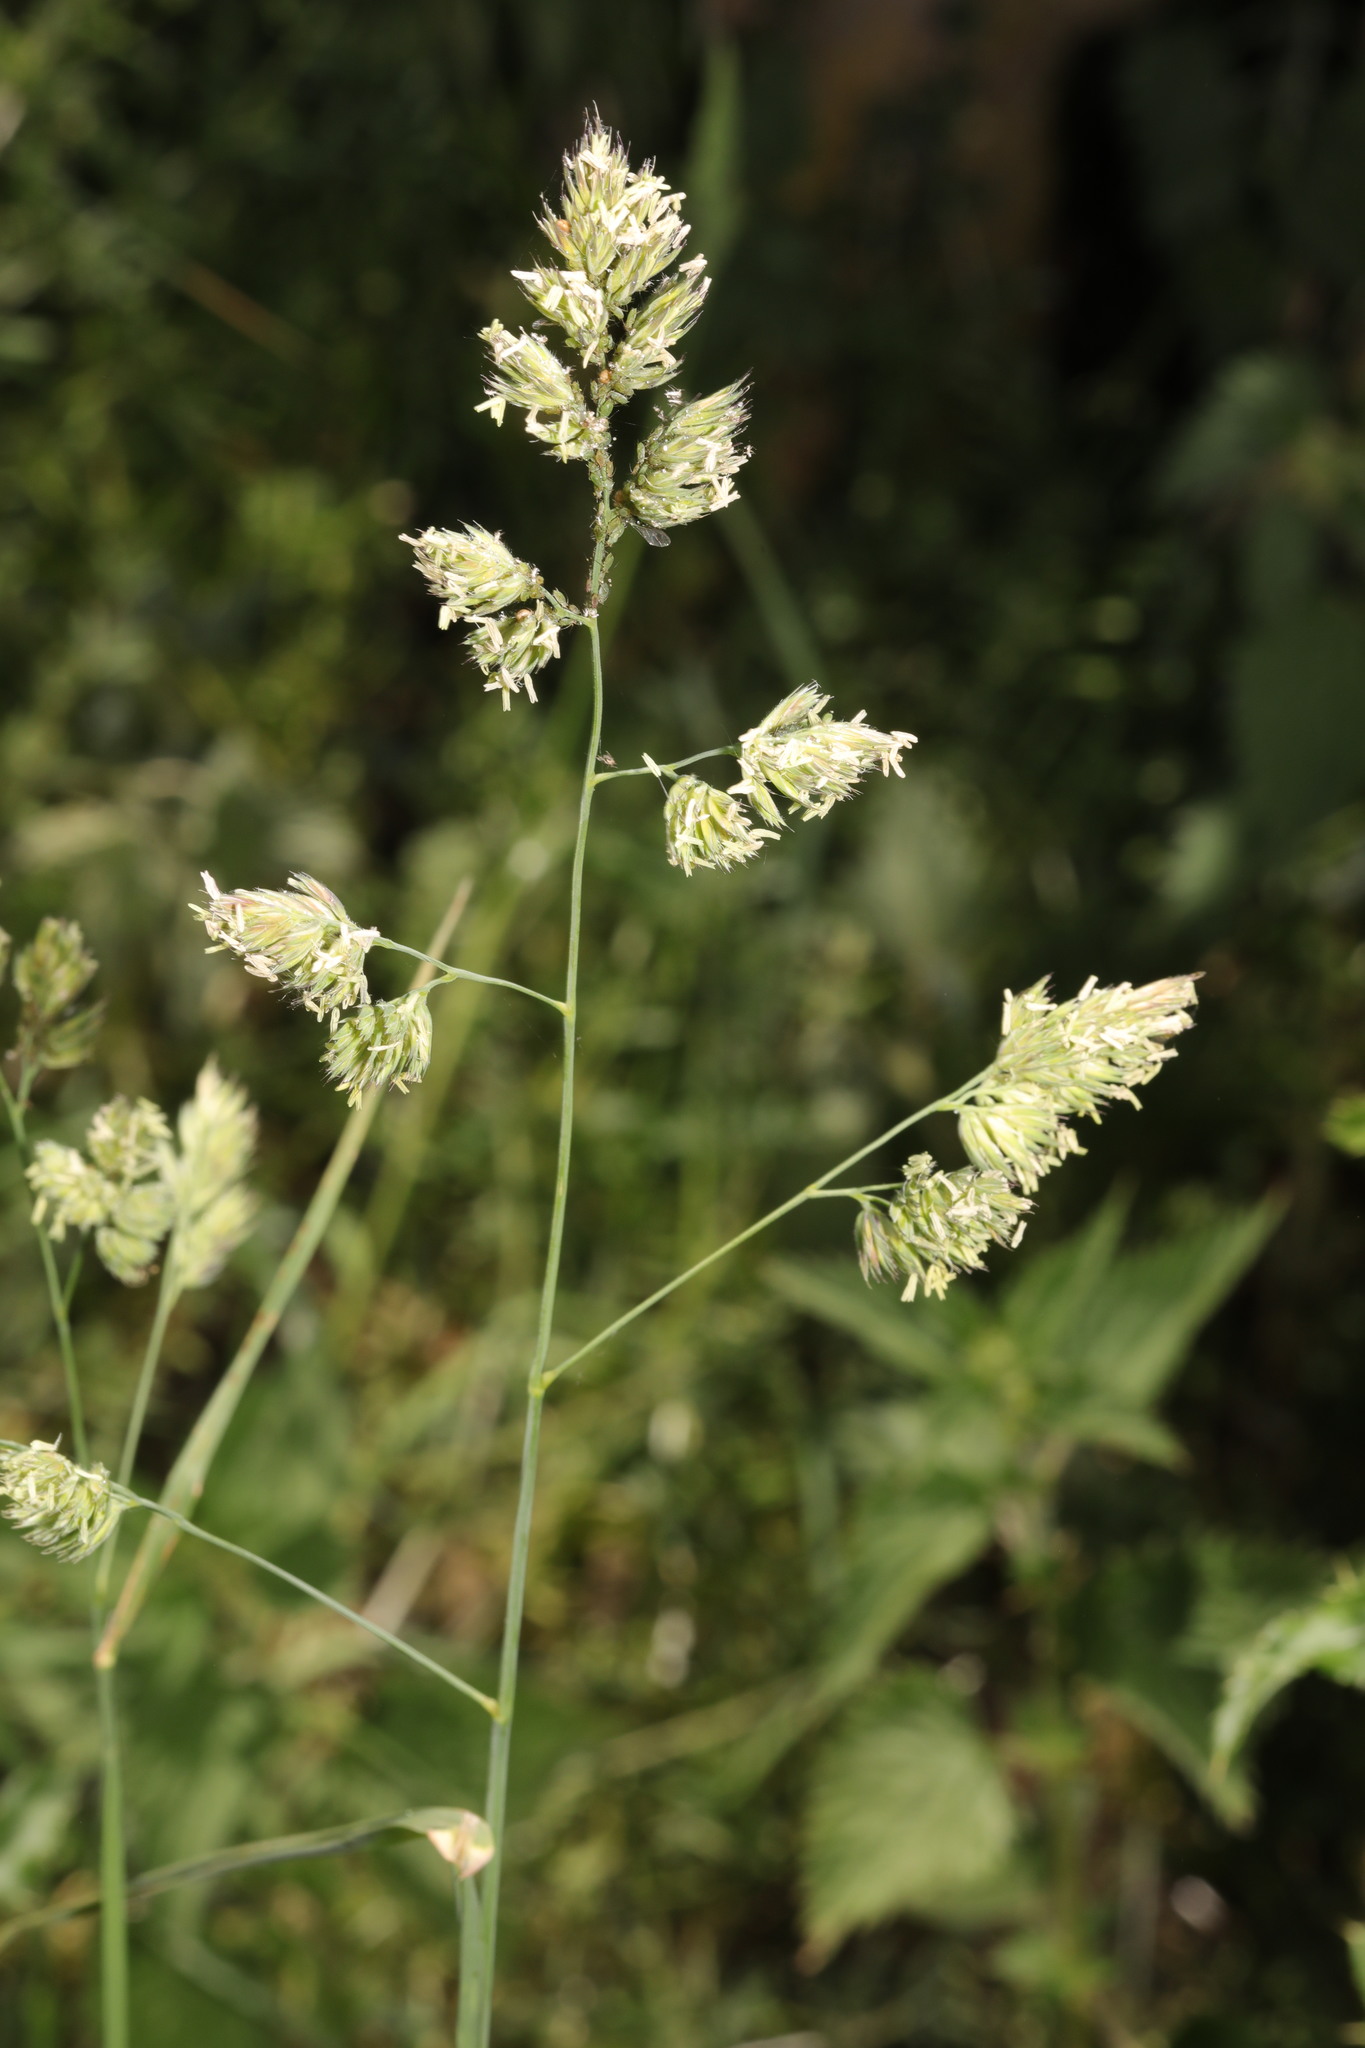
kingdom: Plantae
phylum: Tracheophyta
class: Liliopsida
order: Poales
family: Poaceae
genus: Dactylis
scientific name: Dactylis glomerata
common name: Orchardgrass
